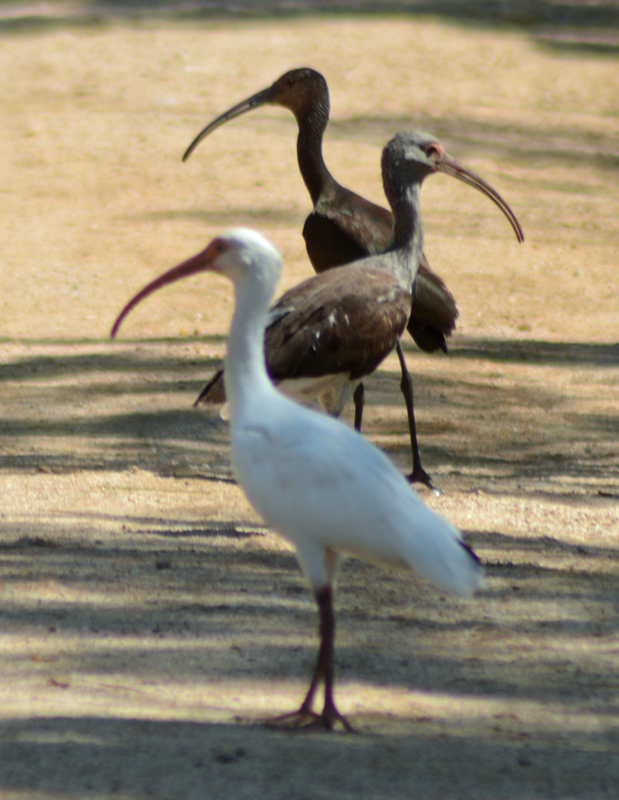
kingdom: Animalia
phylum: Chordata
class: Aves
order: Pelecaniformes
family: Threskiornithidae
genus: Eudocimus
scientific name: Eudocimus albus
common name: White ibis
